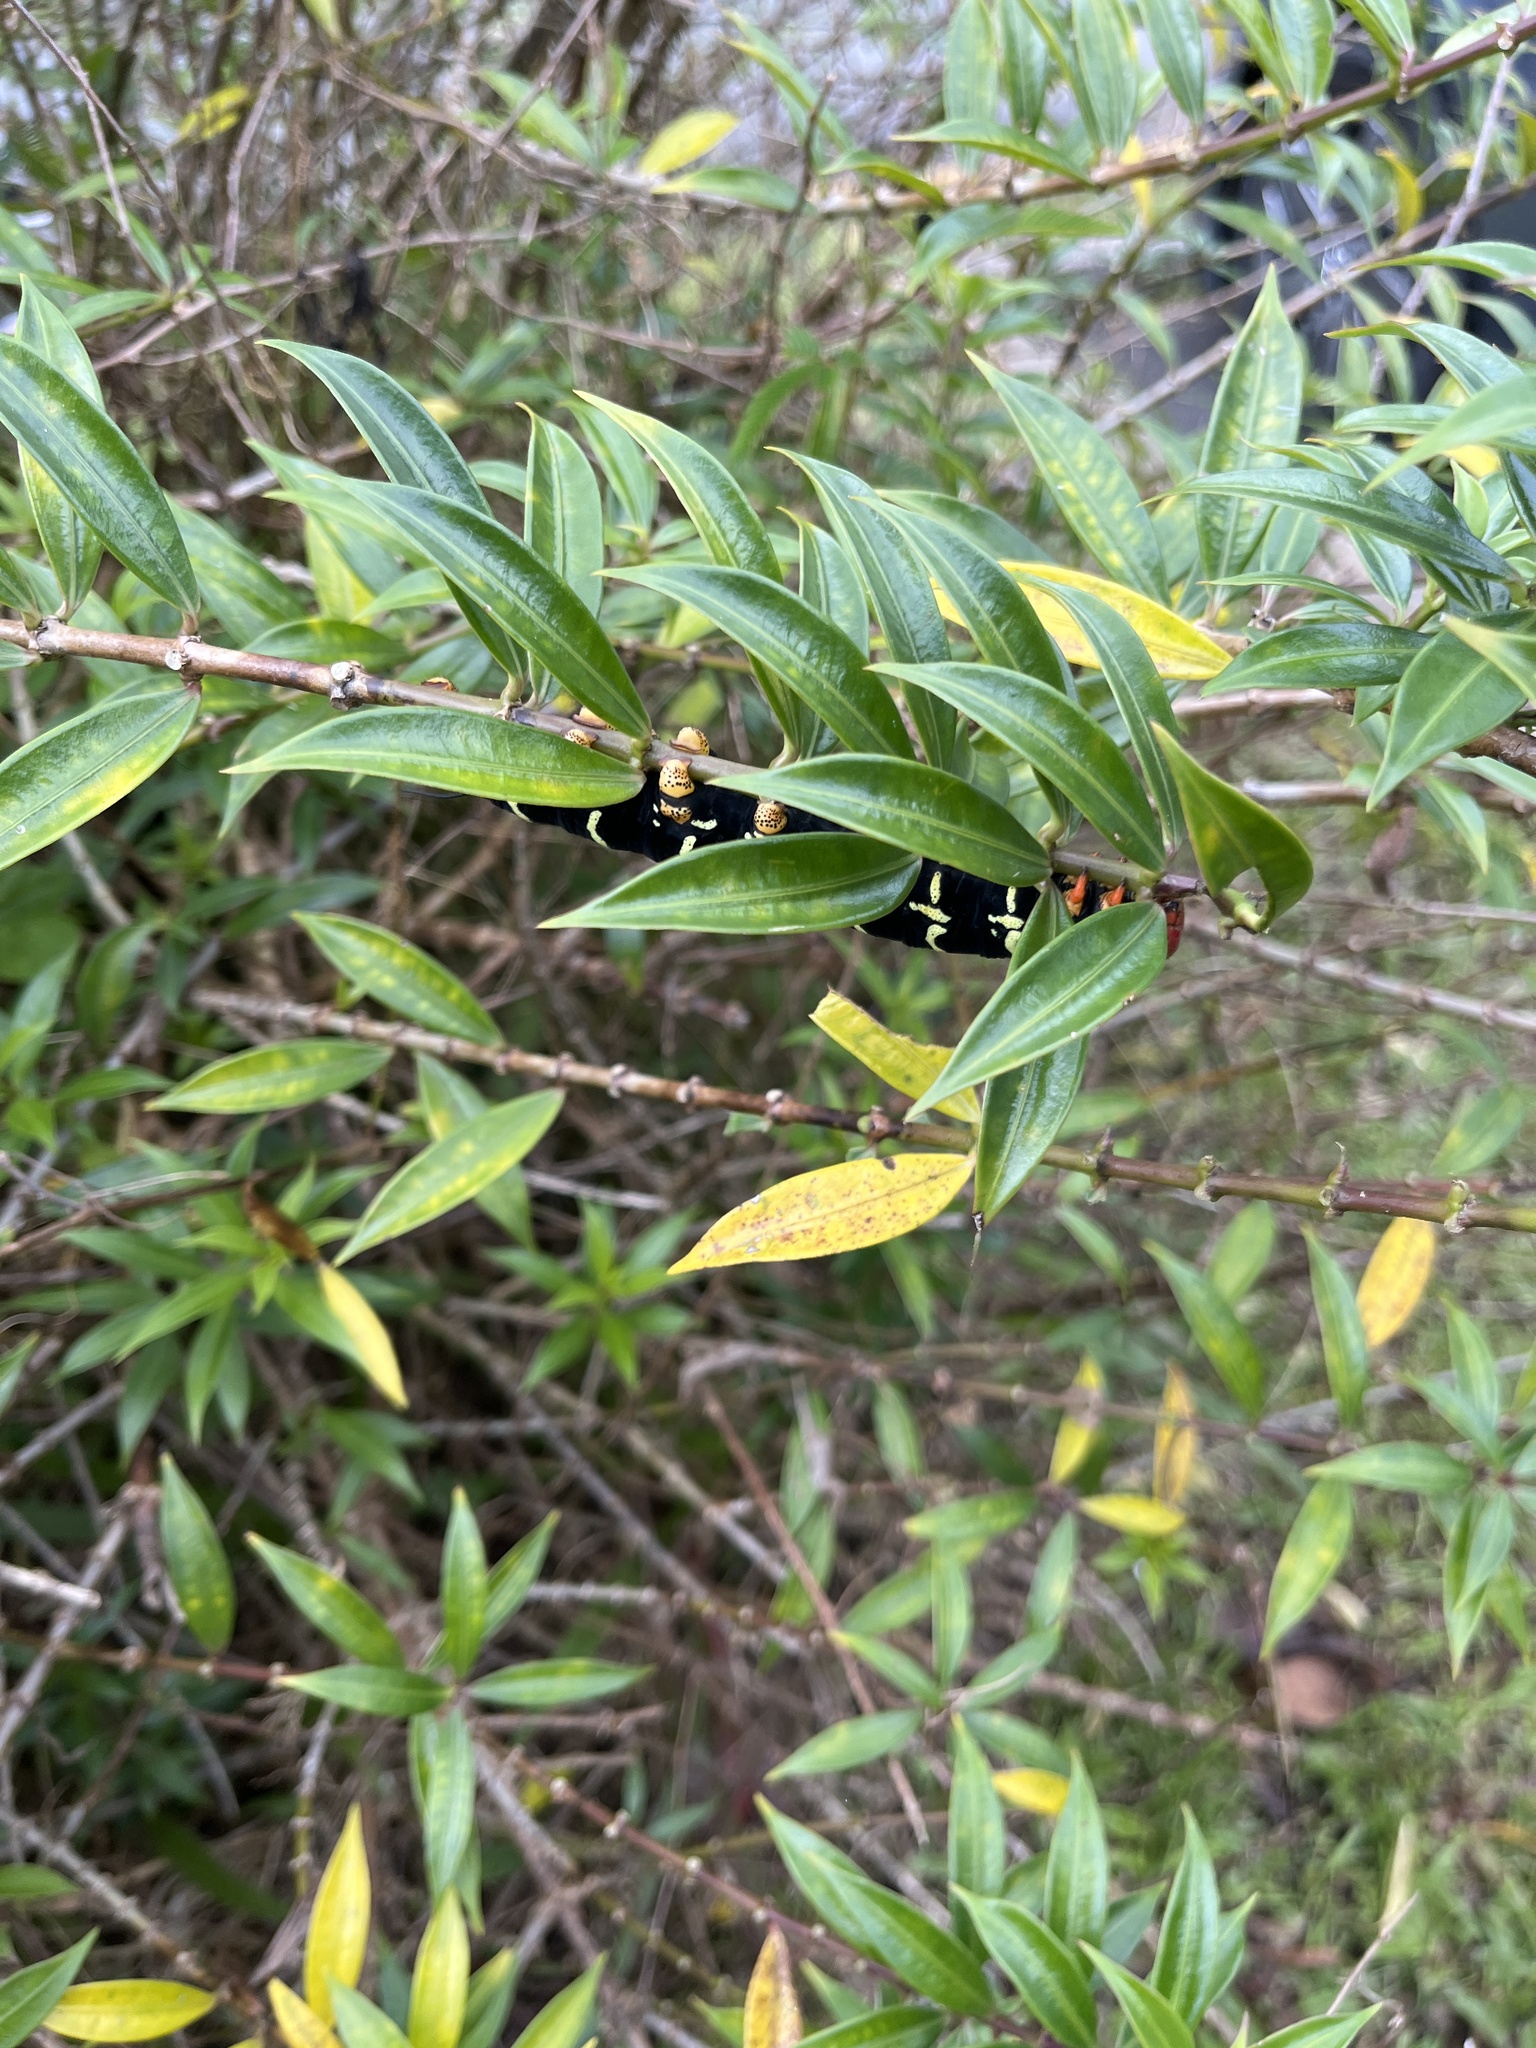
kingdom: Animalia
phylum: Arthropoda
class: Insecta
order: Lepidoptera
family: Sphingidae
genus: Pseudosphinx
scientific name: Pseudosphinx tetrio
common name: Tetrio sphinx
